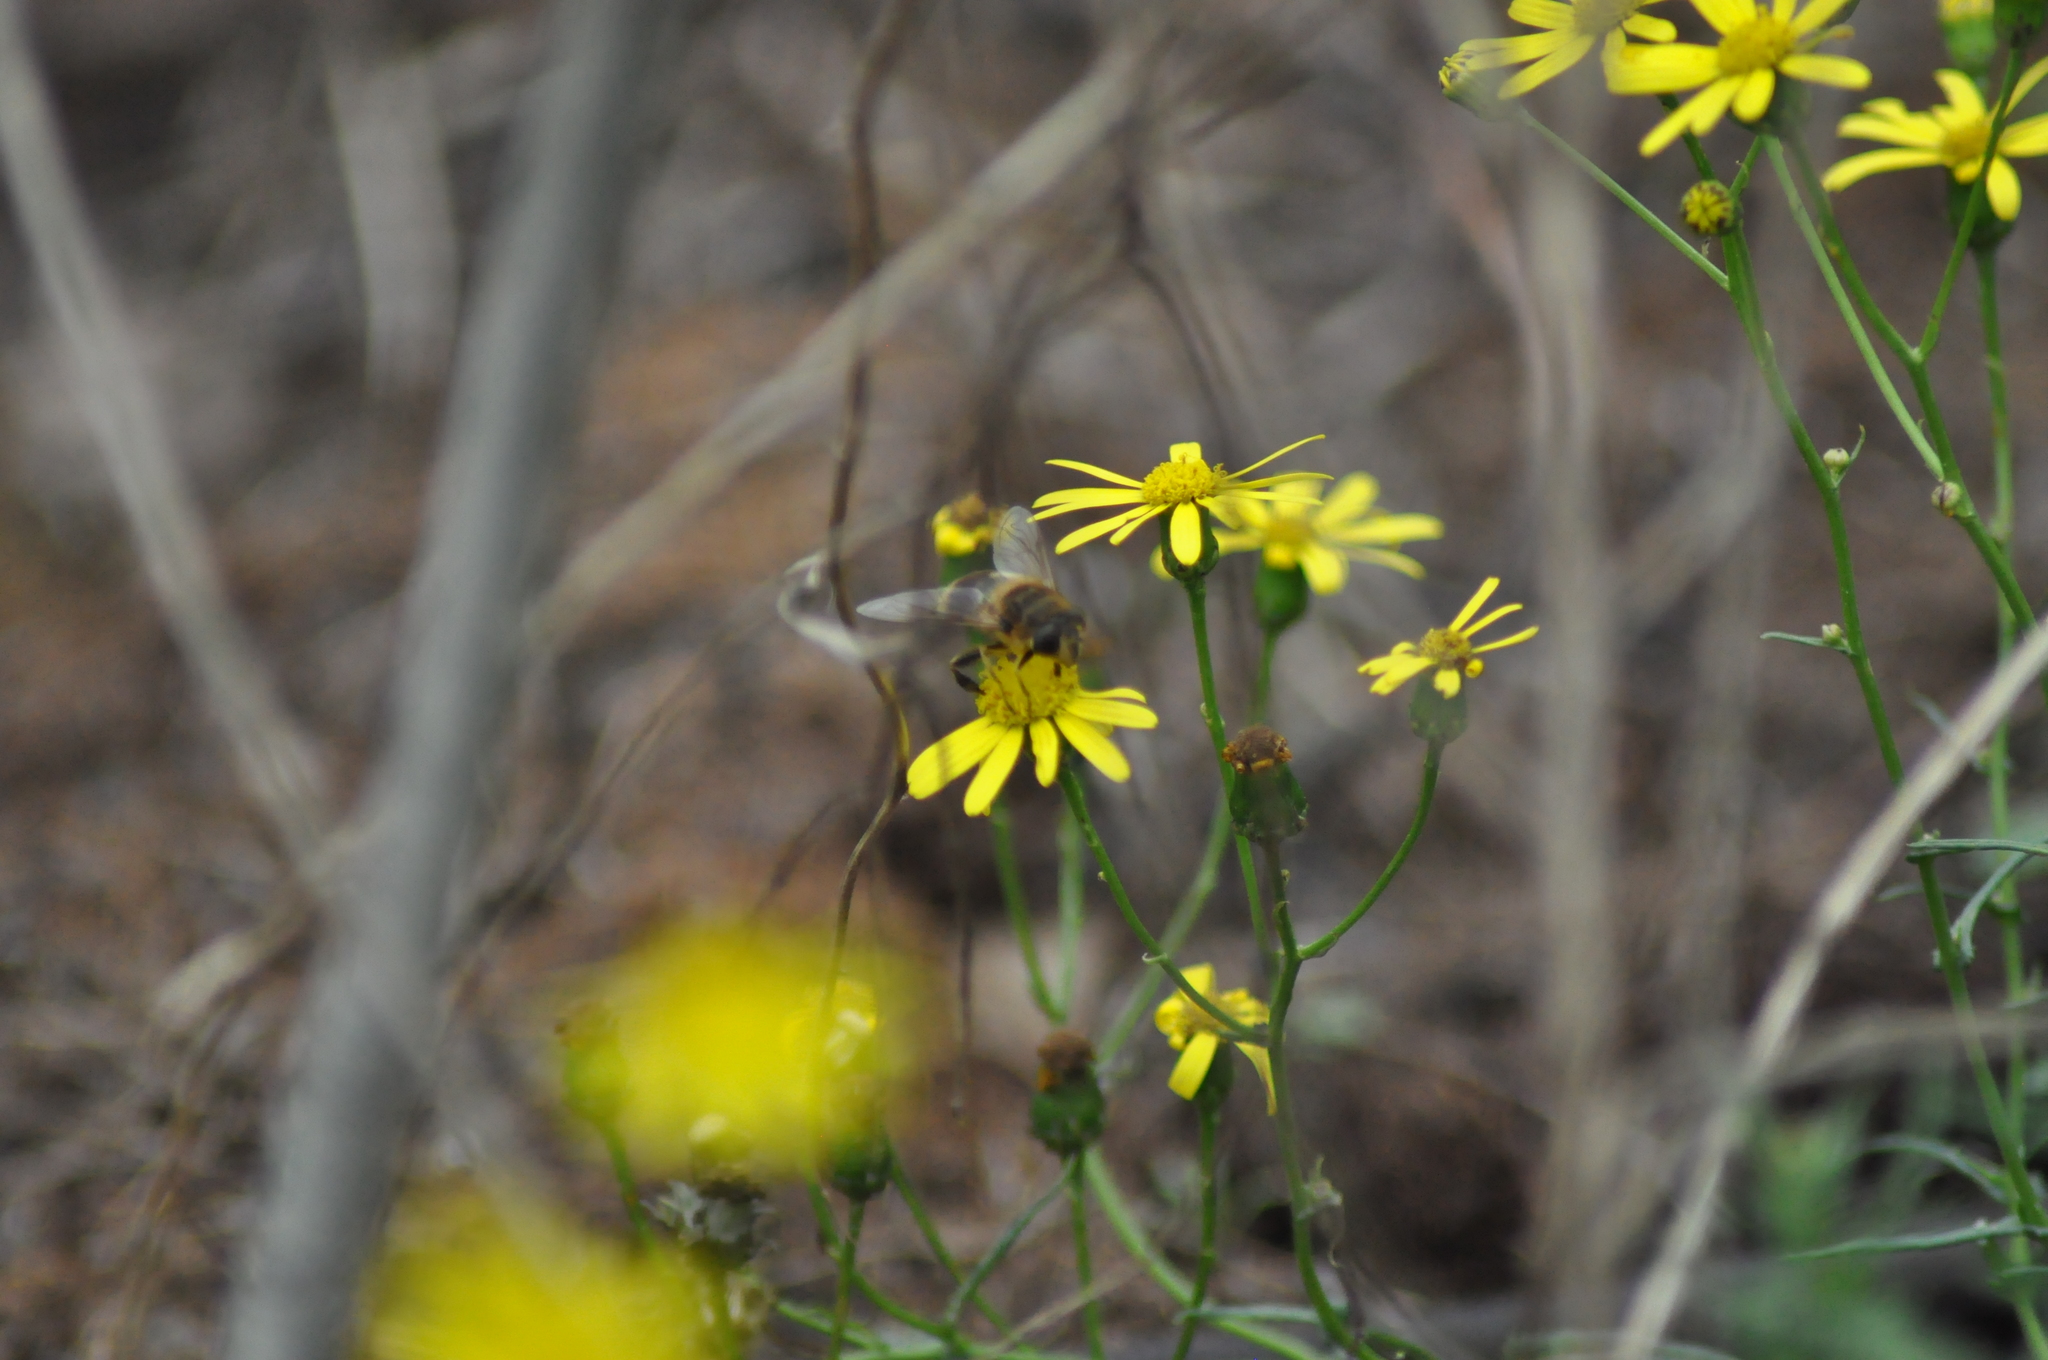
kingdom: Animalia
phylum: Arthropoda
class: Insecta
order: Diptera
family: Syrphidae
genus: Eristalis
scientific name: Eristalis tenax
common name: Drone fly
